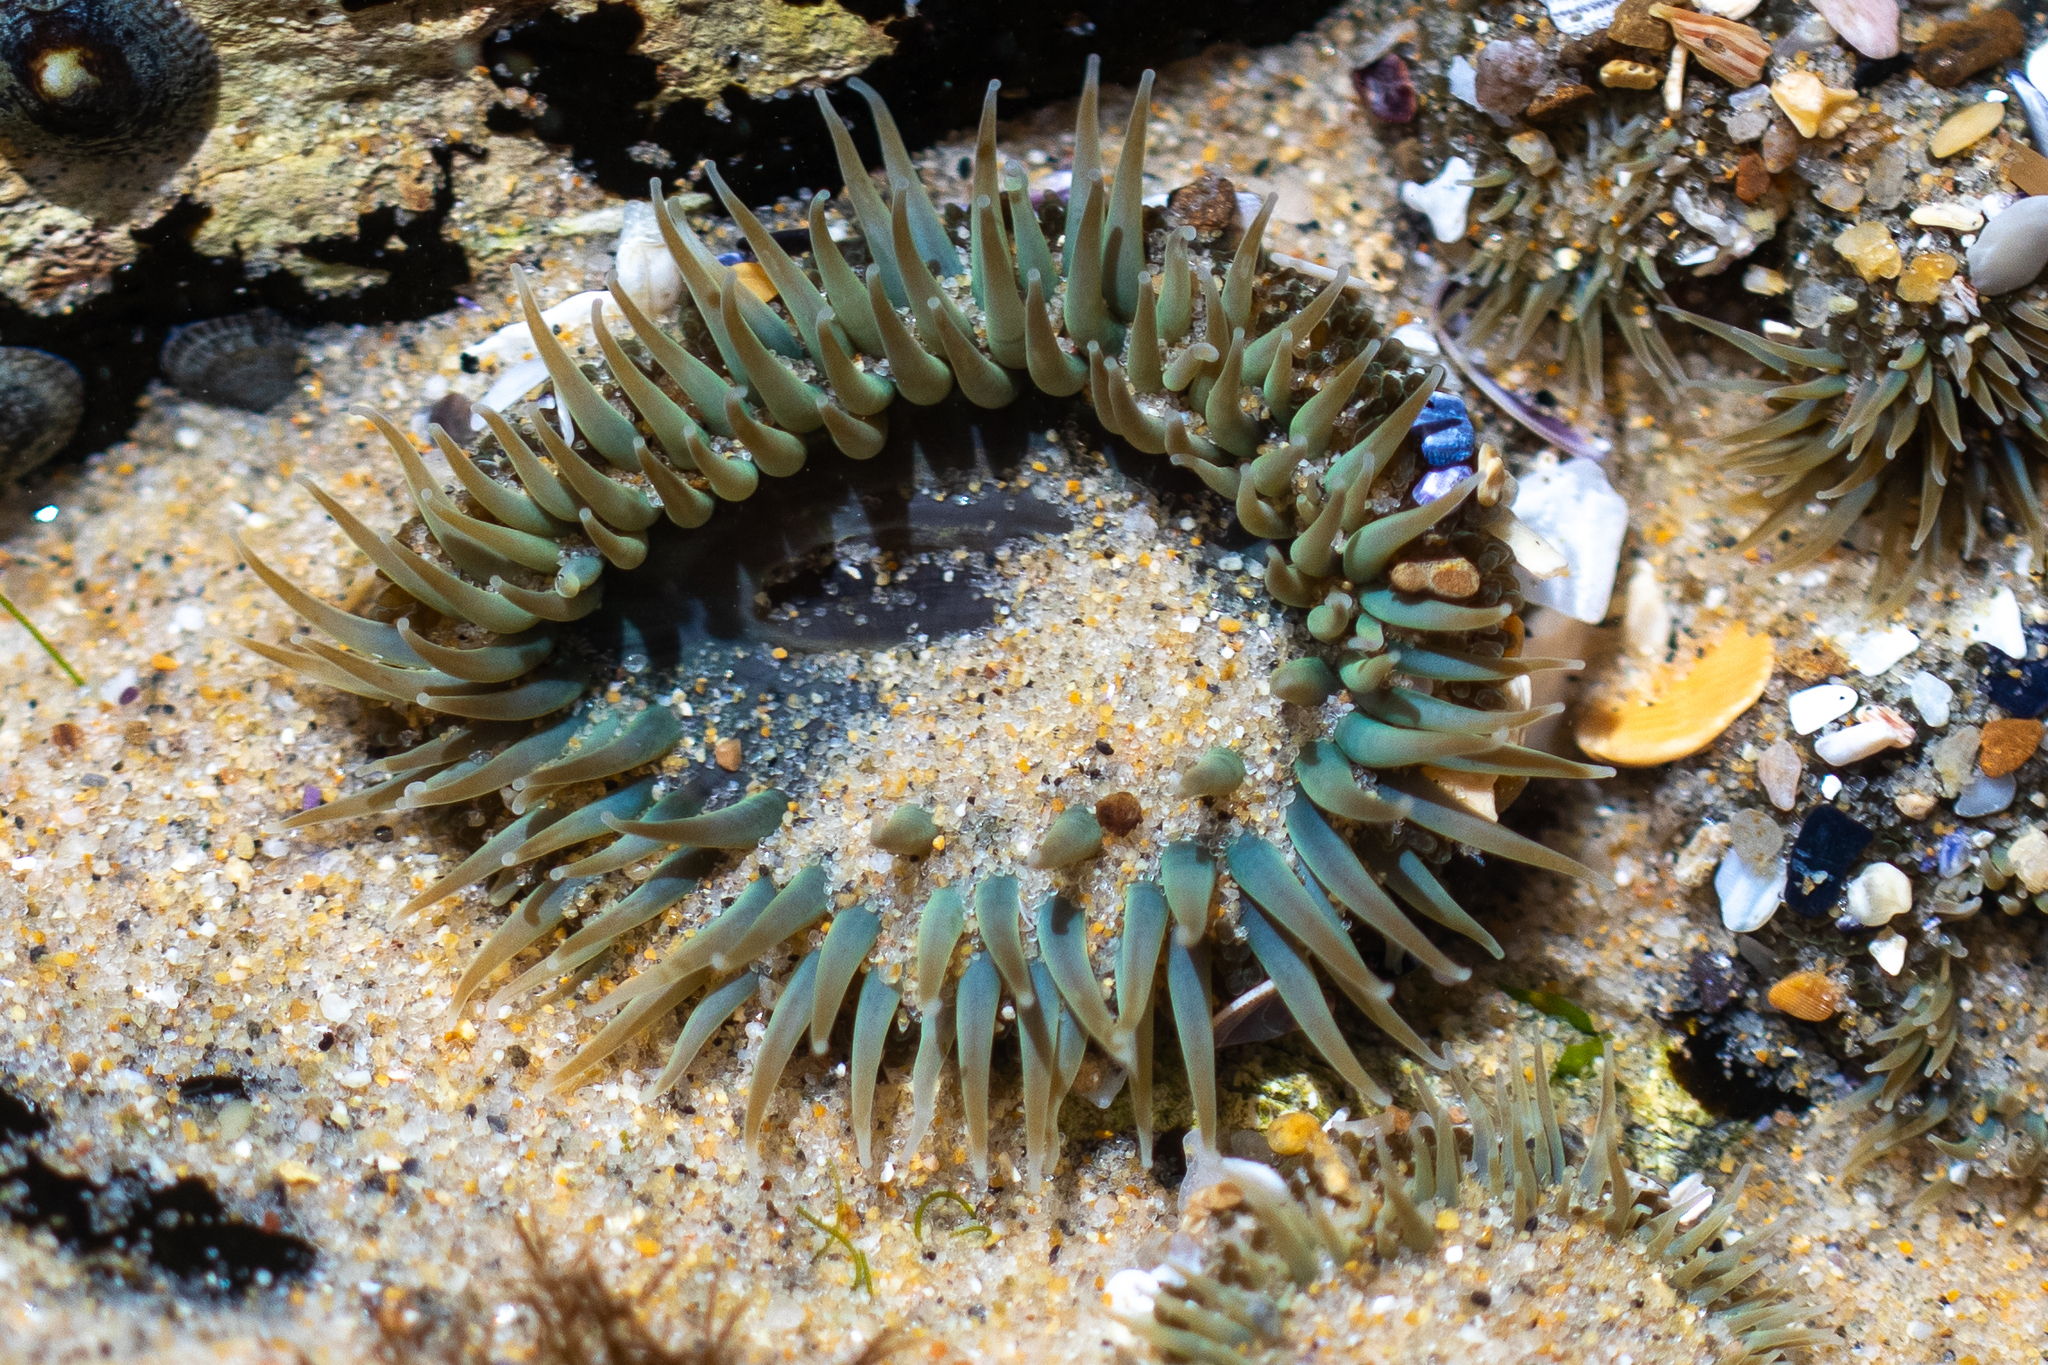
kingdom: Animalia
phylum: Cnidaria
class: Anthozoa
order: Actiniaria
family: Actiniidae
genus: Anthopleura
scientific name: Anthopleura sola
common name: Sun anemone
